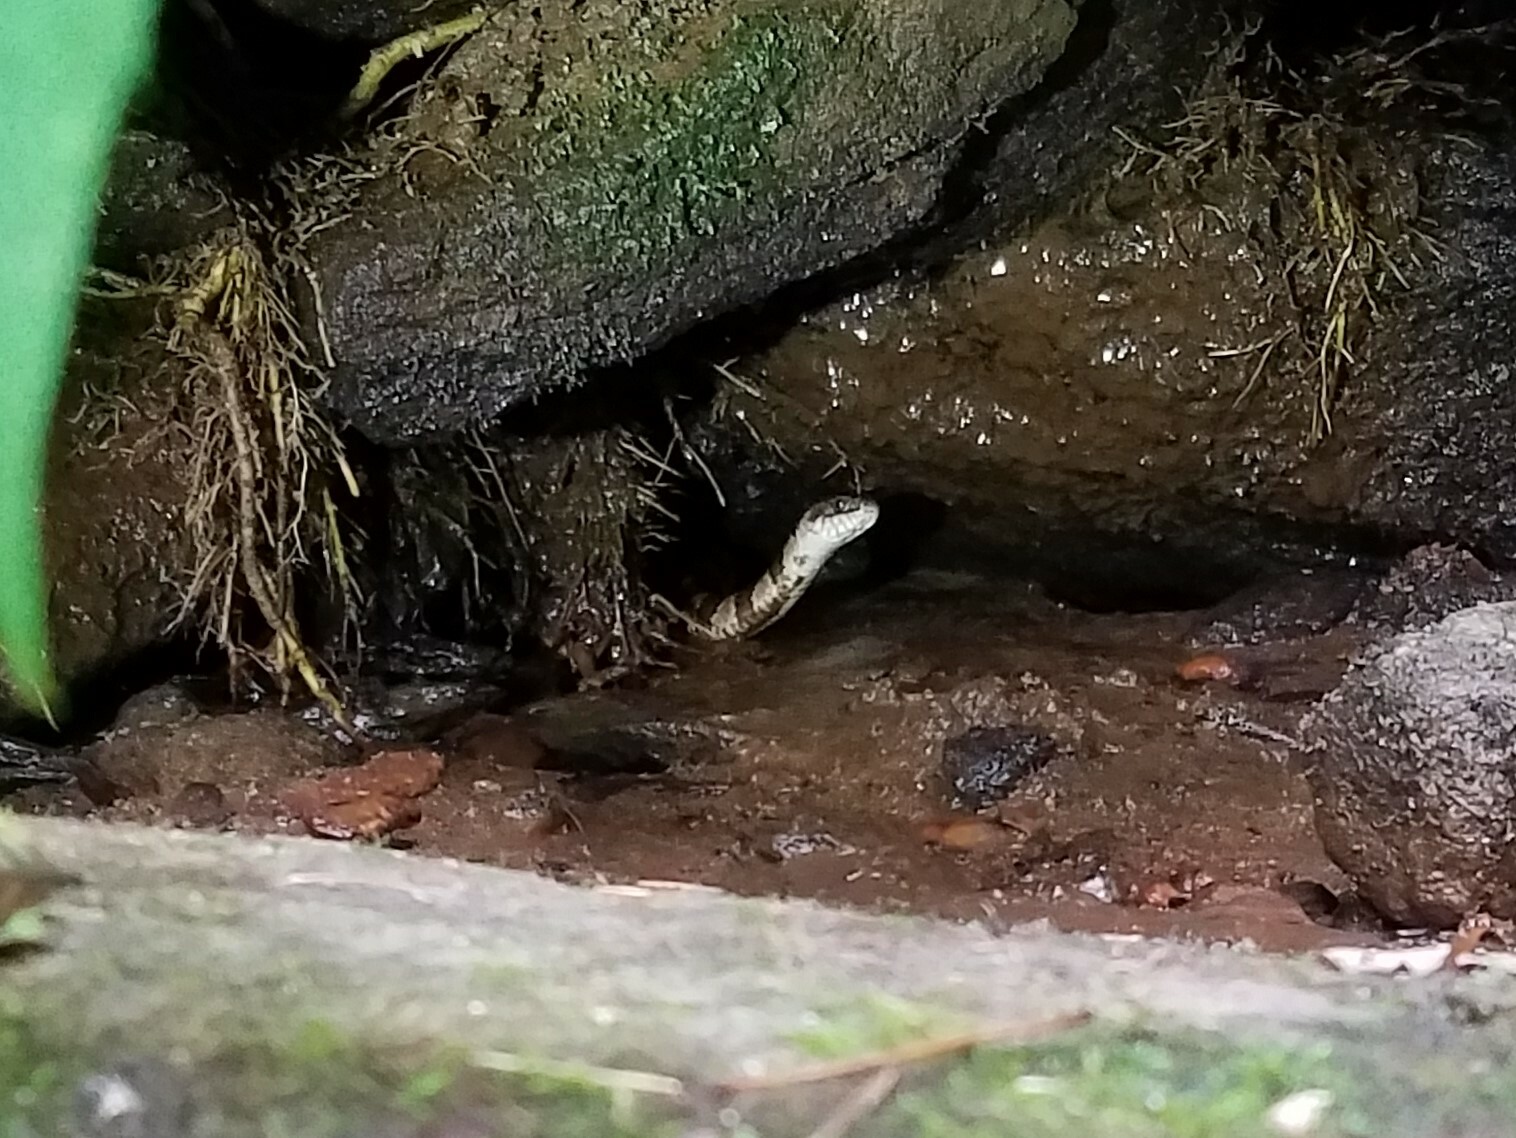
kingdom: Animalia
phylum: Chordata
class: Squamata
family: Colubridae
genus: Nerodia
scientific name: Nerodia sipedon
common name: Northern water snake
